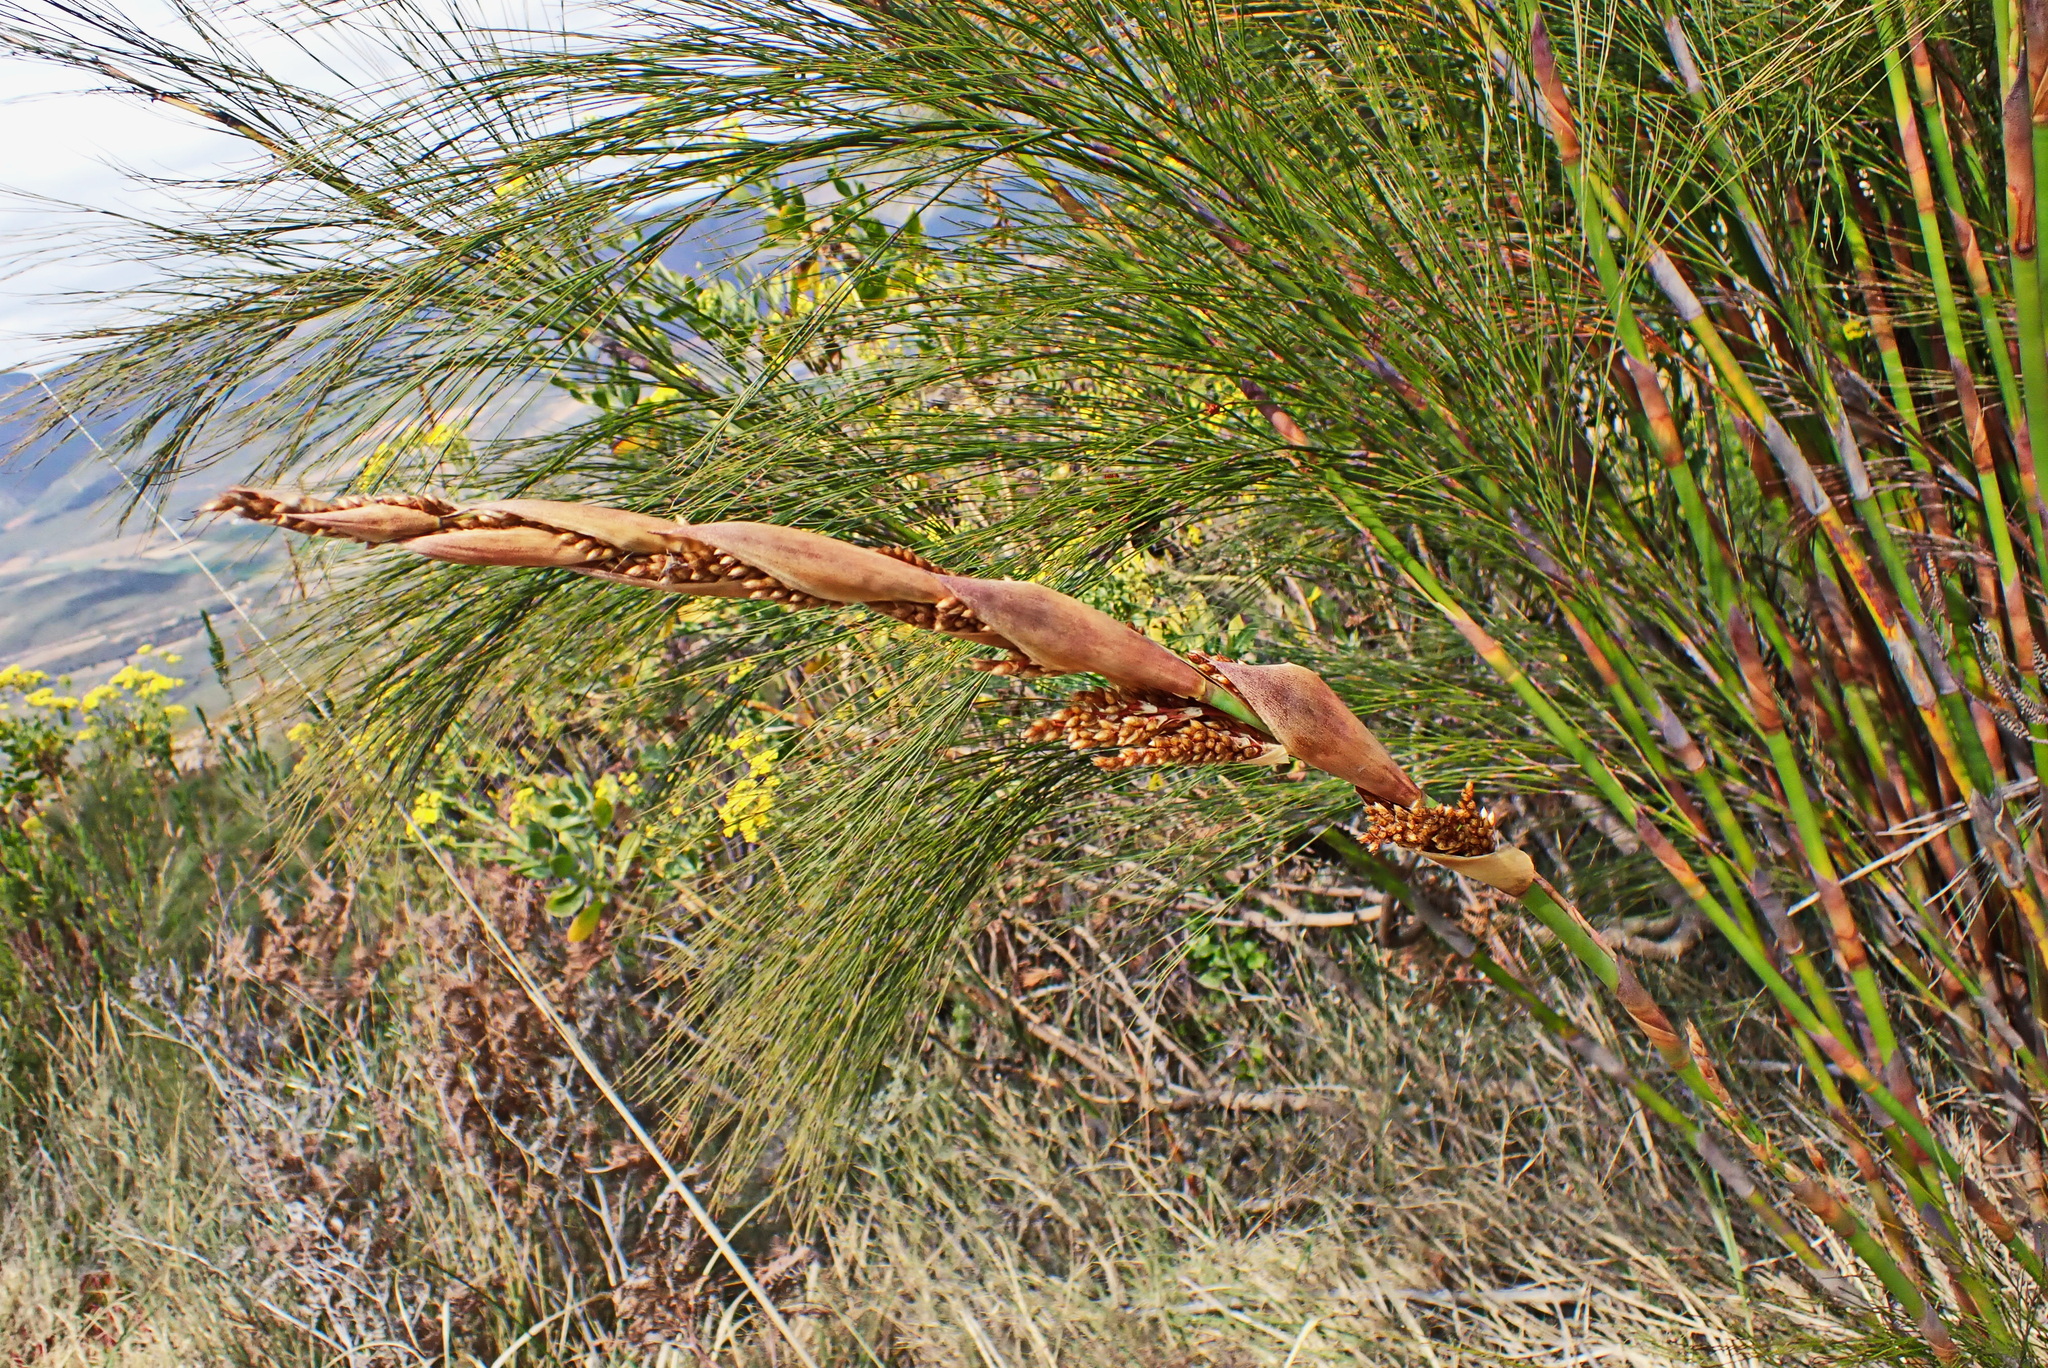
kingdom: Plantae
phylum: Tracheophyta
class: Liliopsida
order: Poales
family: Restionaceae
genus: Cannomois
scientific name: Cannomois virgata
